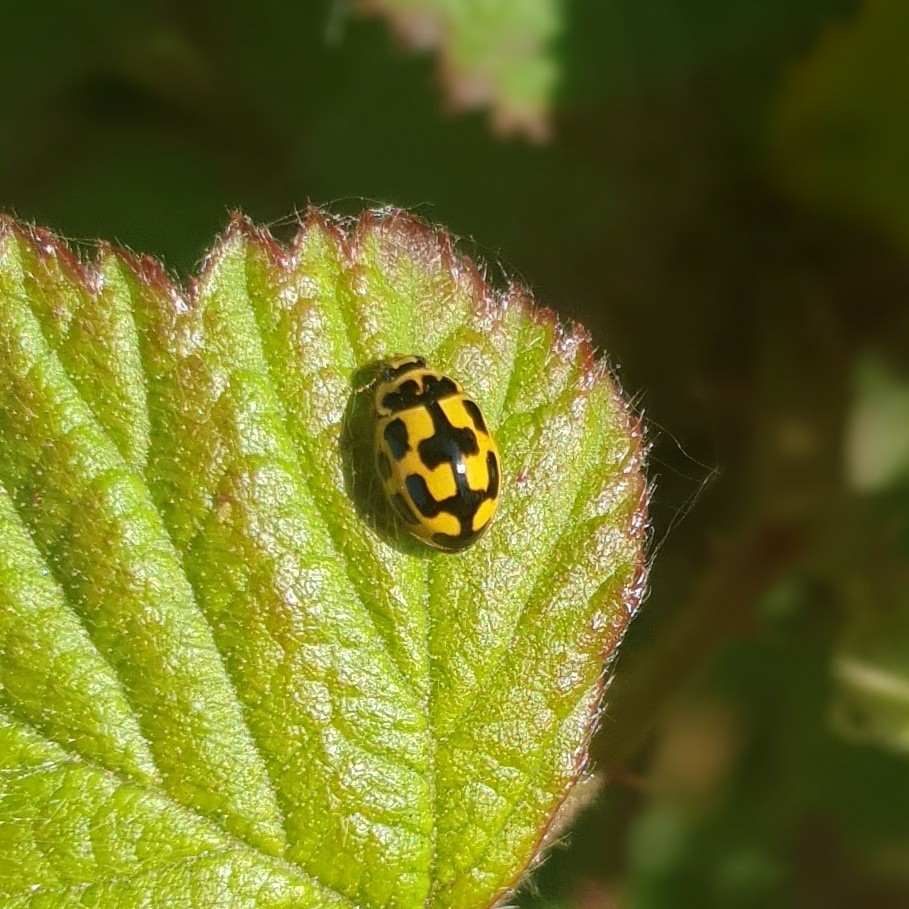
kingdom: Animalia
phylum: Arthropoda
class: Insecta
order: Coleoptera
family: Coccinellidae
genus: Propylaea
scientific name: Propylaea quatuordecimpunctata
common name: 14-spotted ladybird beetle
